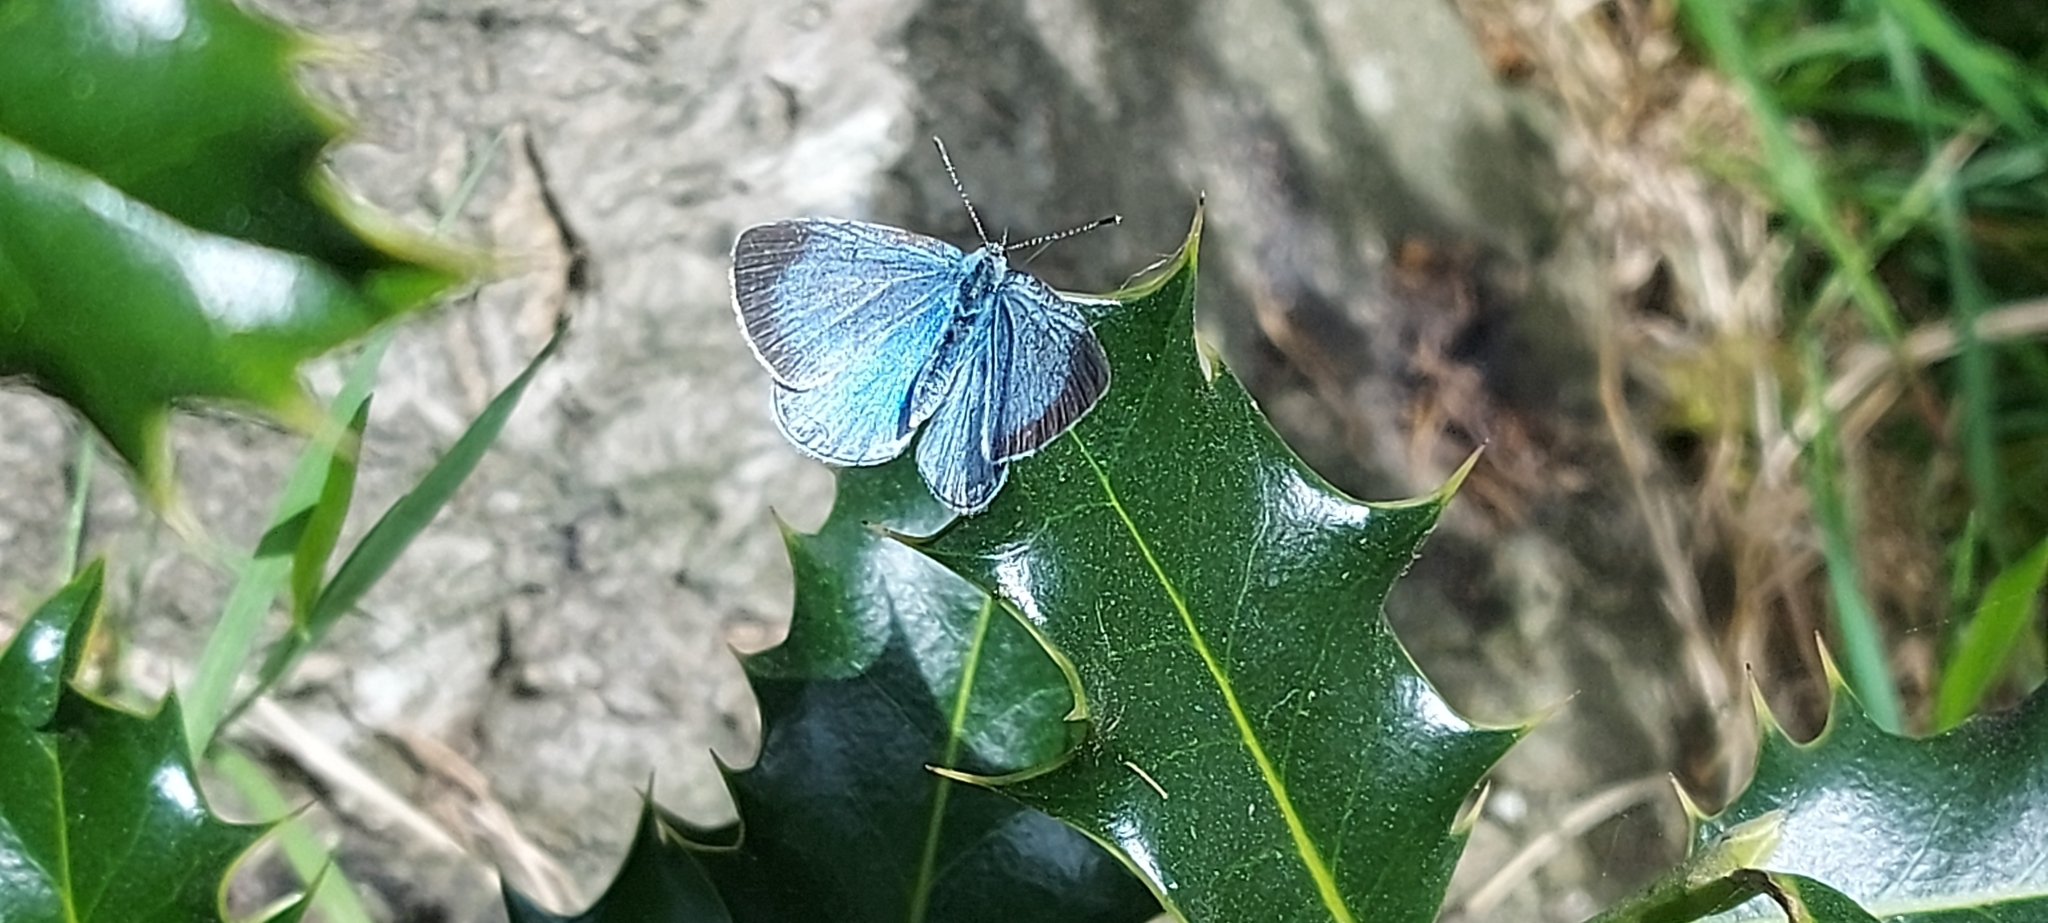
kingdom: Animalia
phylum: Arthropoda
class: Insecta
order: Lepidoptera
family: Lycaenidae
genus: Celastrina
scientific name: Celastrina argiolus
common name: Holly blue
